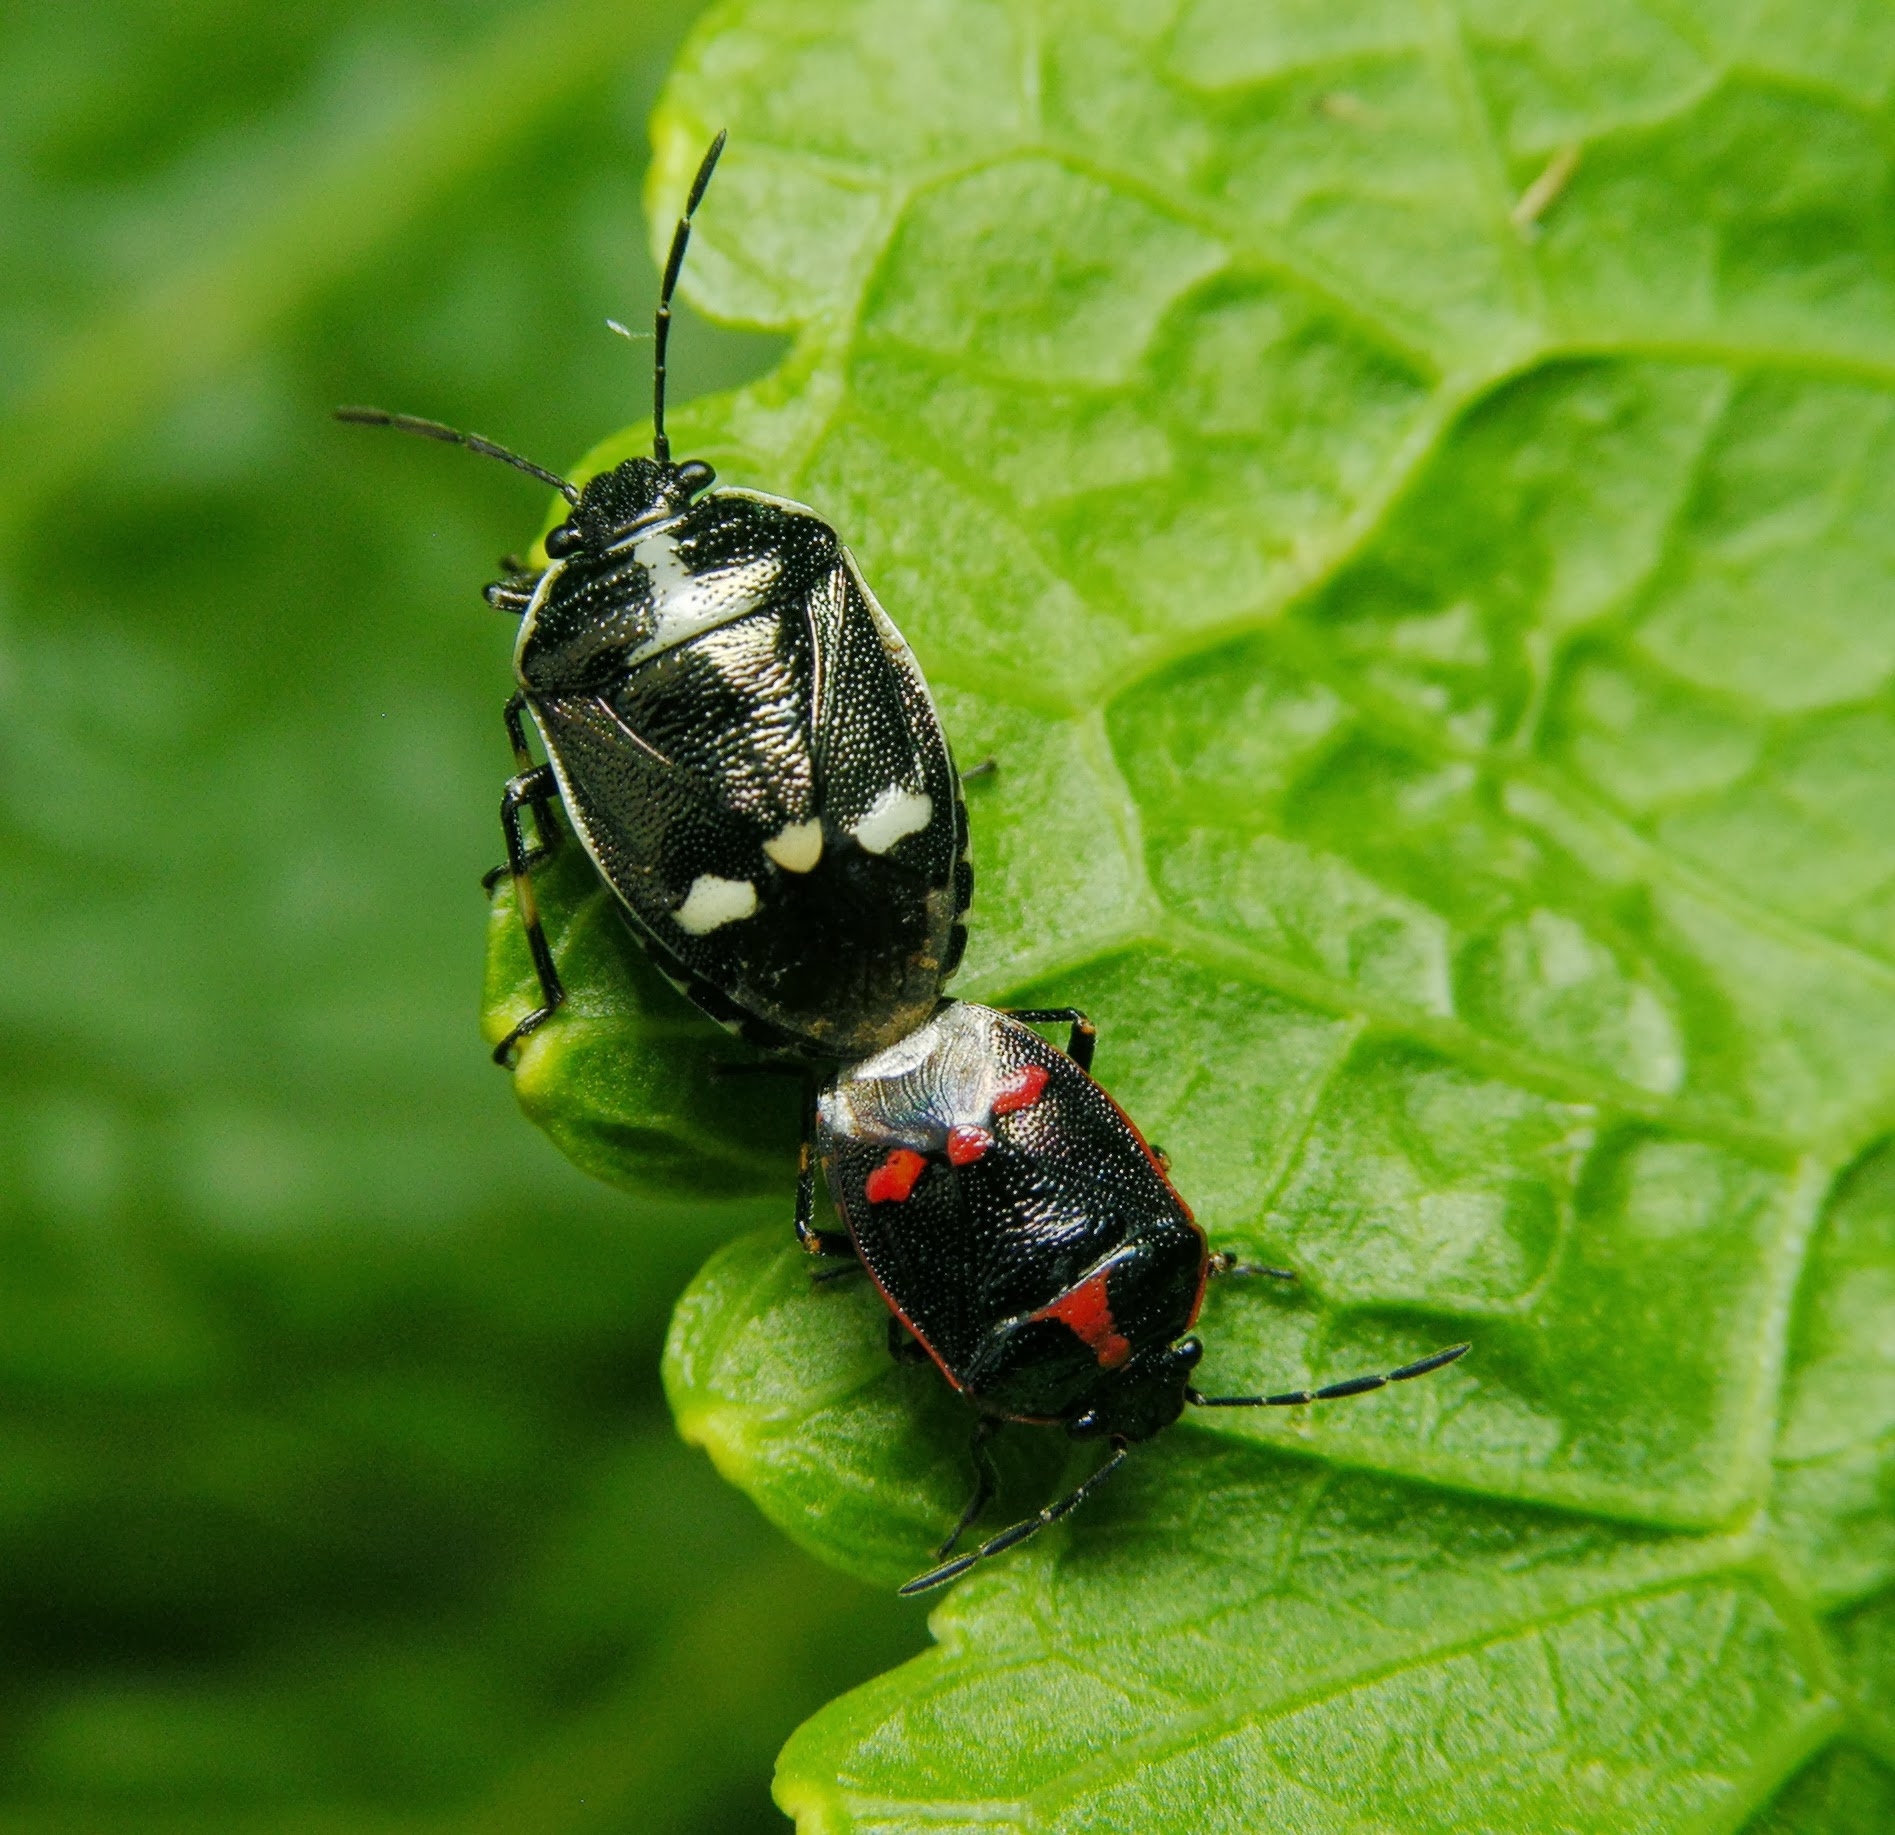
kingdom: Animalia
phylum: Arthropoda
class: Insecta
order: Hemiptera
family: Pentatomidae
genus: Eurydema
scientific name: Eurydema oleracea
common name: Cabbage bug
